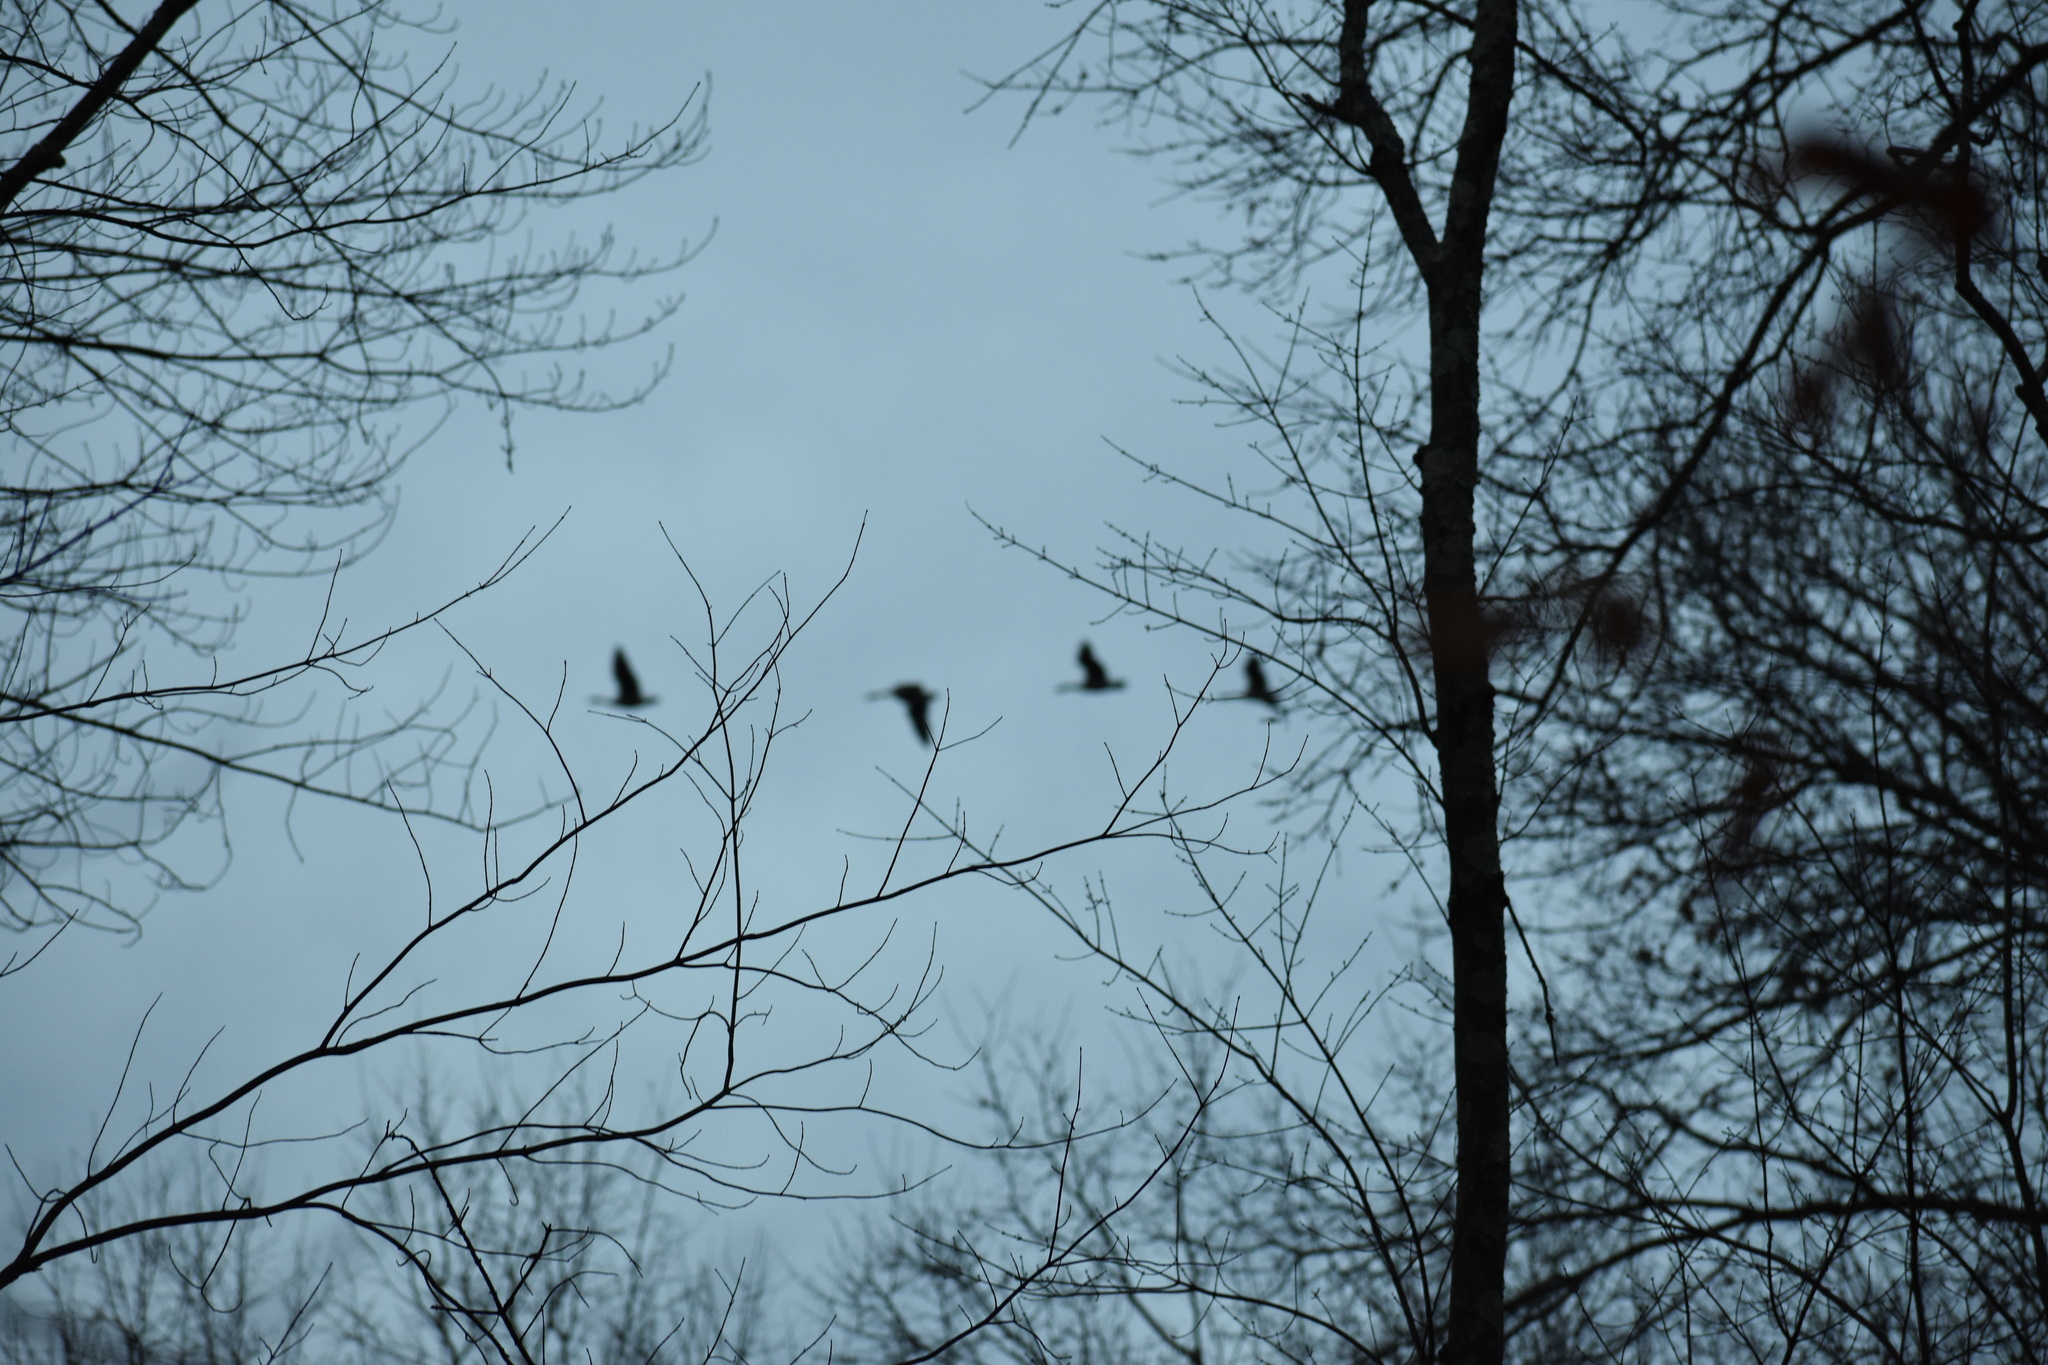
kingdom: Animalia
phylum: Chordata
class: Aves
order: Anseriformes
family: Anatidae
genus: Branta
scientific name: Branta canadensis
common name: Canada goose
